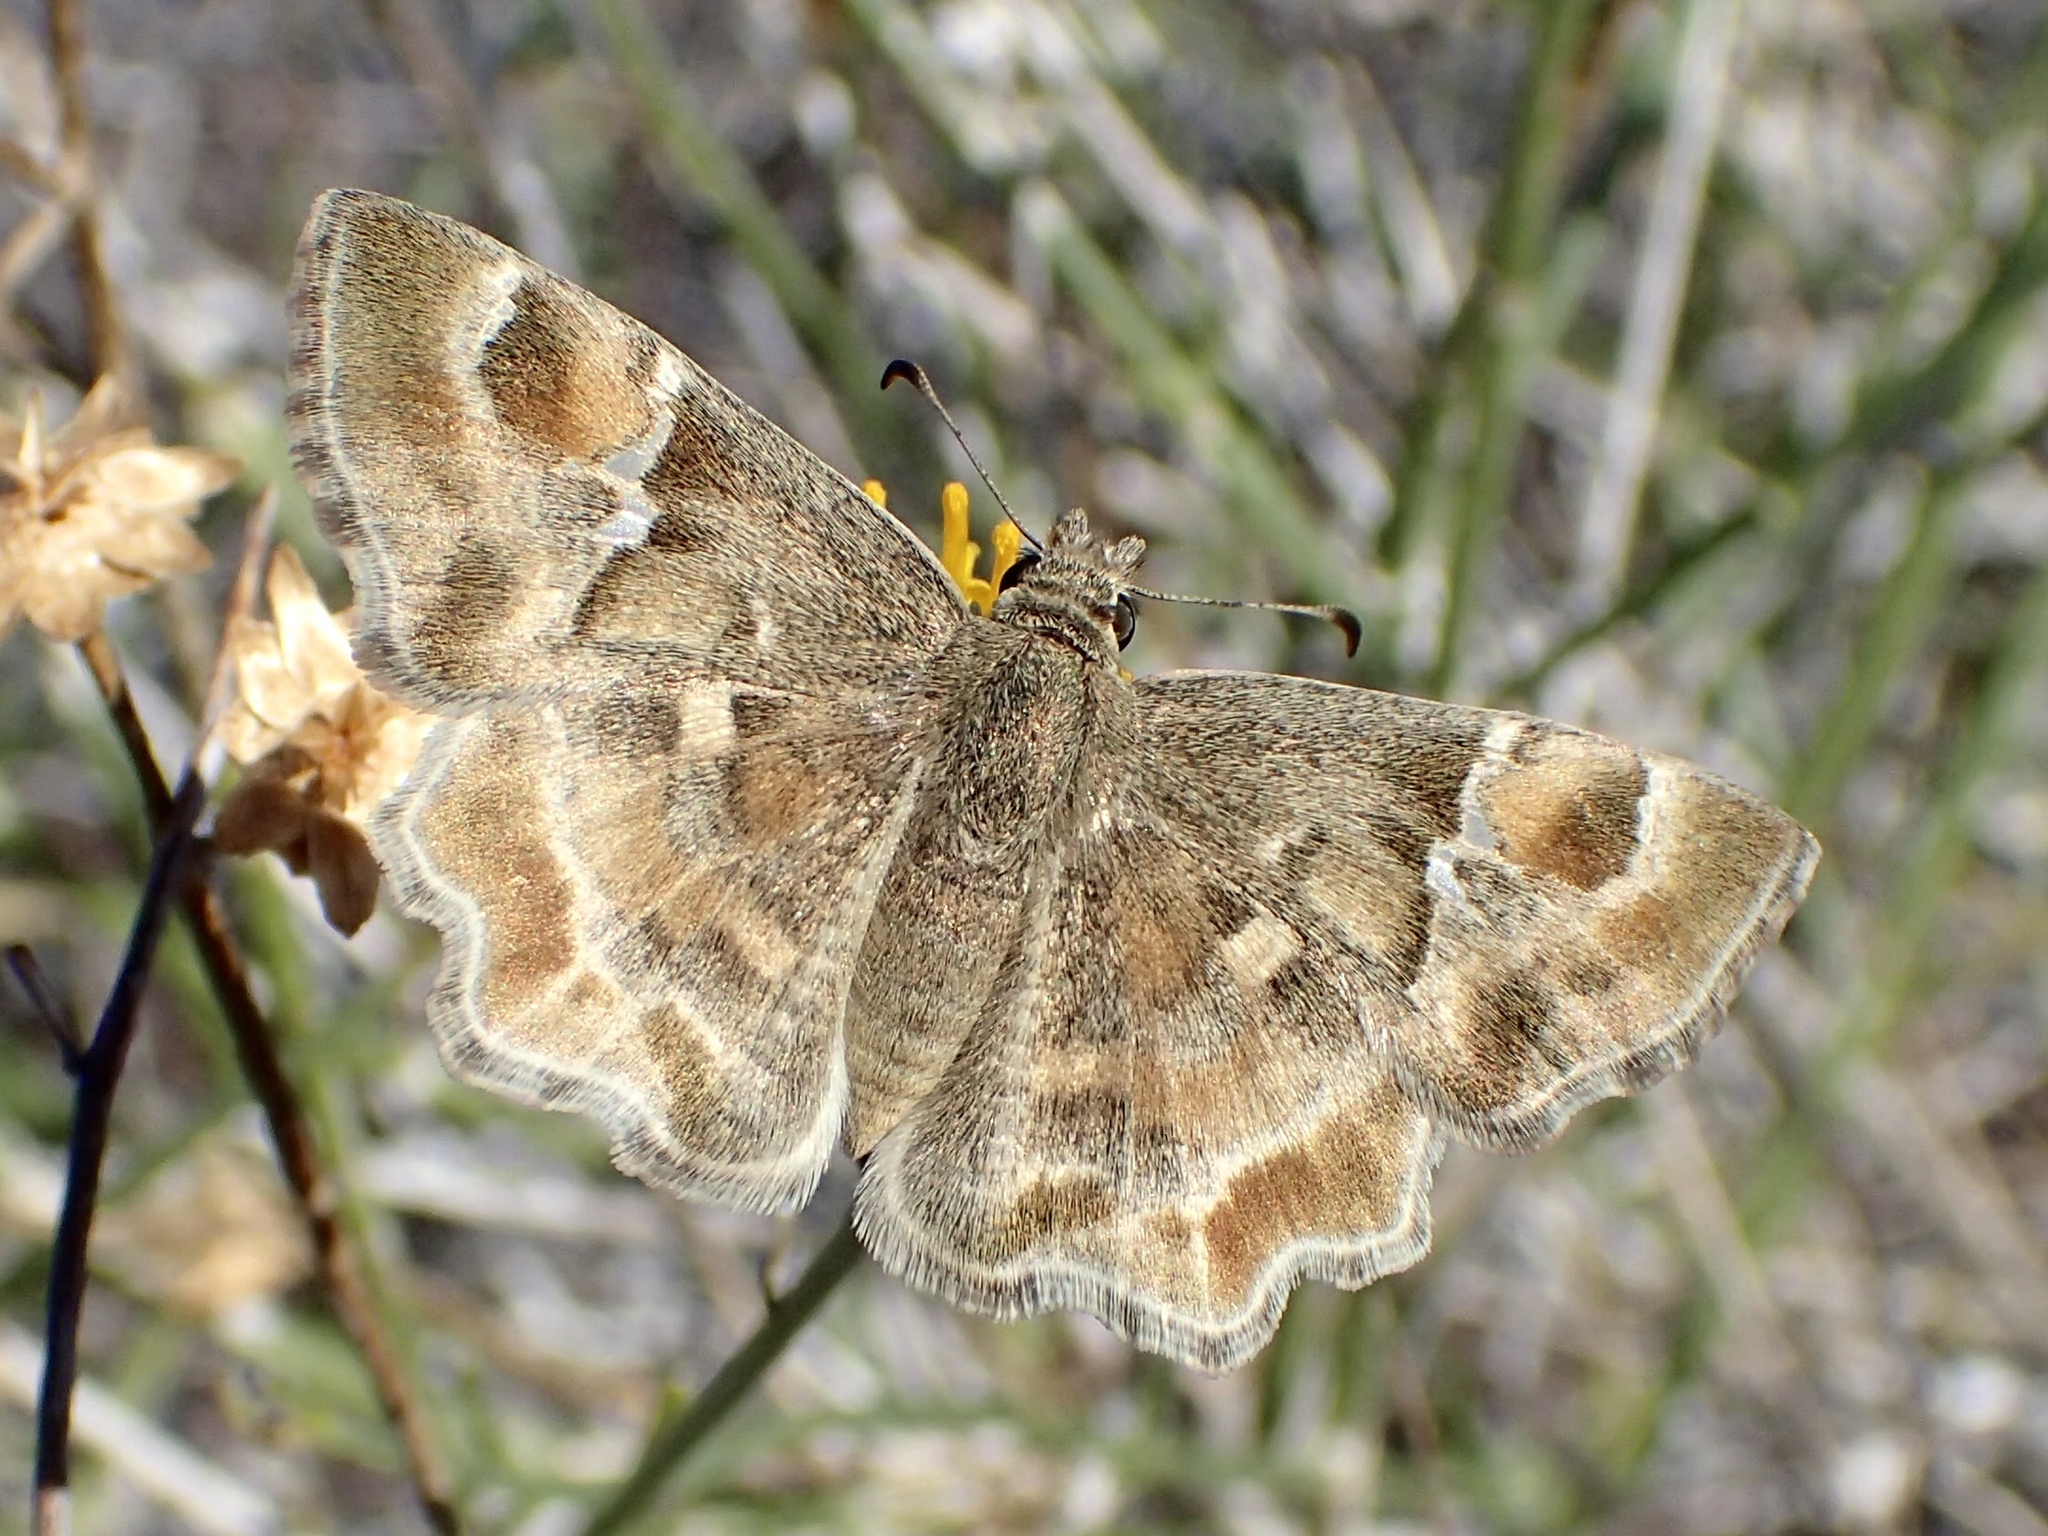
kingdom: Animalia
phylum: Arthropoda
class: Insecta
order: Lepidoptera
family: Hesperiidae
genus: Systasea
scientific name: Systasea zampa
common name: Arizona powdered-skipper
